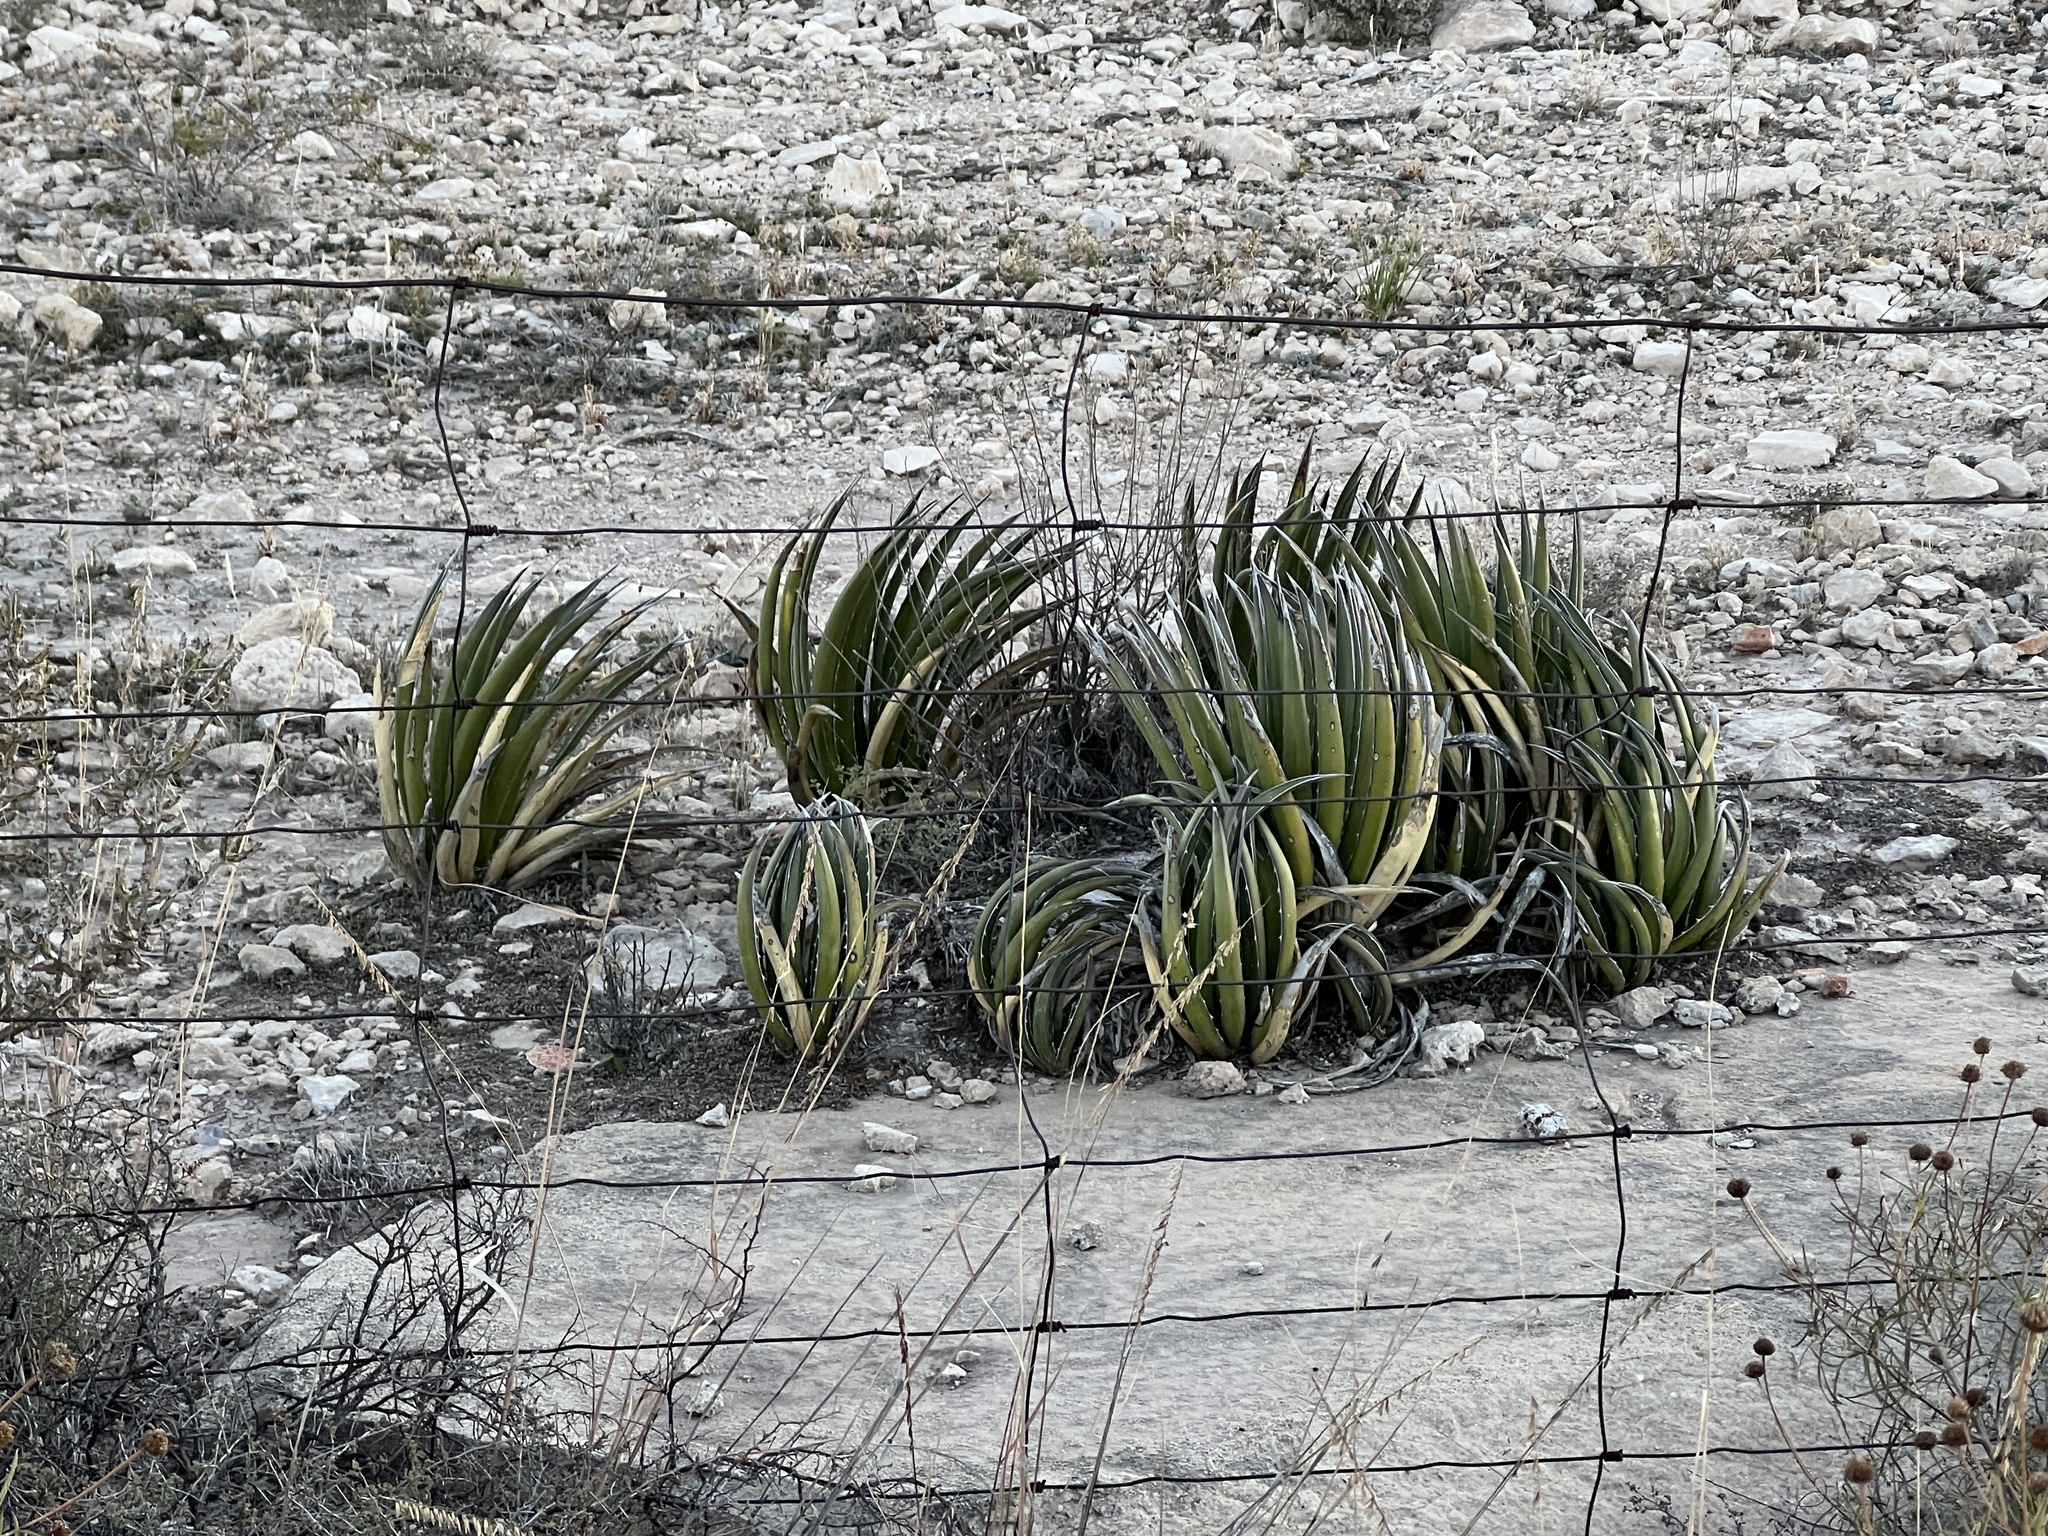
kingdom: Plantae
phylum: Tracheophyta
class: Liliopsida
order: Asparagales
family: Asparagaceae
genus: Agave
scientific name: Agave lechuguilla
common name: Lecheguilla agave
